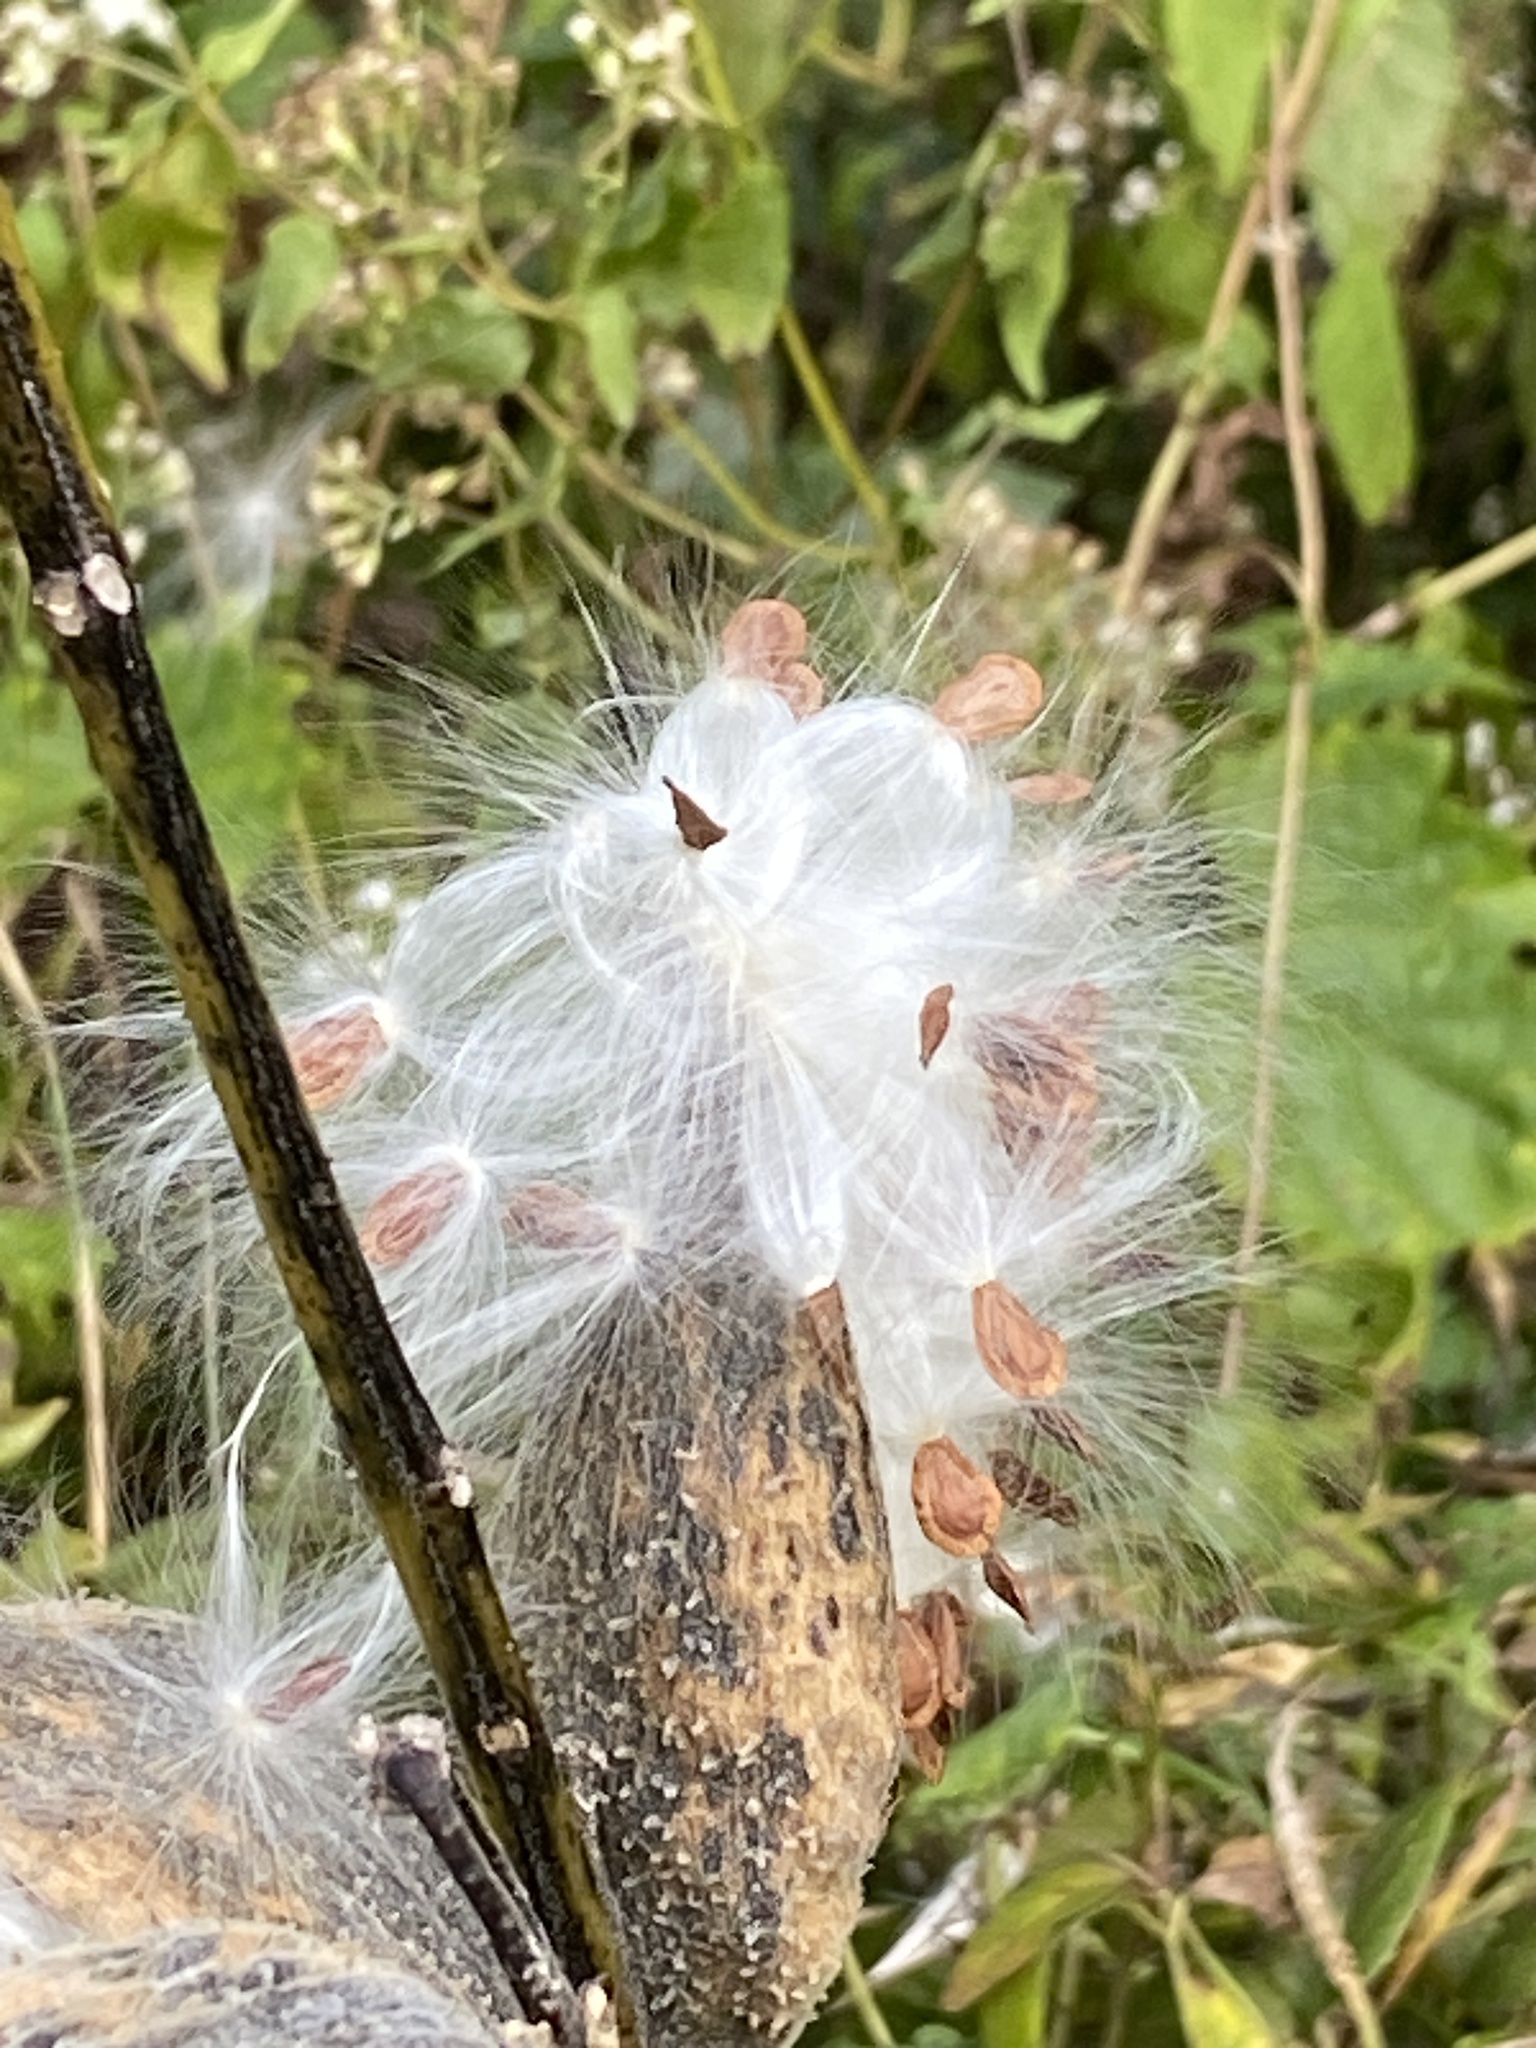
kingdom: Plantae
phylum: Tracheophyta
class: Magnoliopsida
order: Gentianales
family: Apocynaceae
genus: Asclepias
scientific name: Asclepias syriaca
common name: Common milkweed
